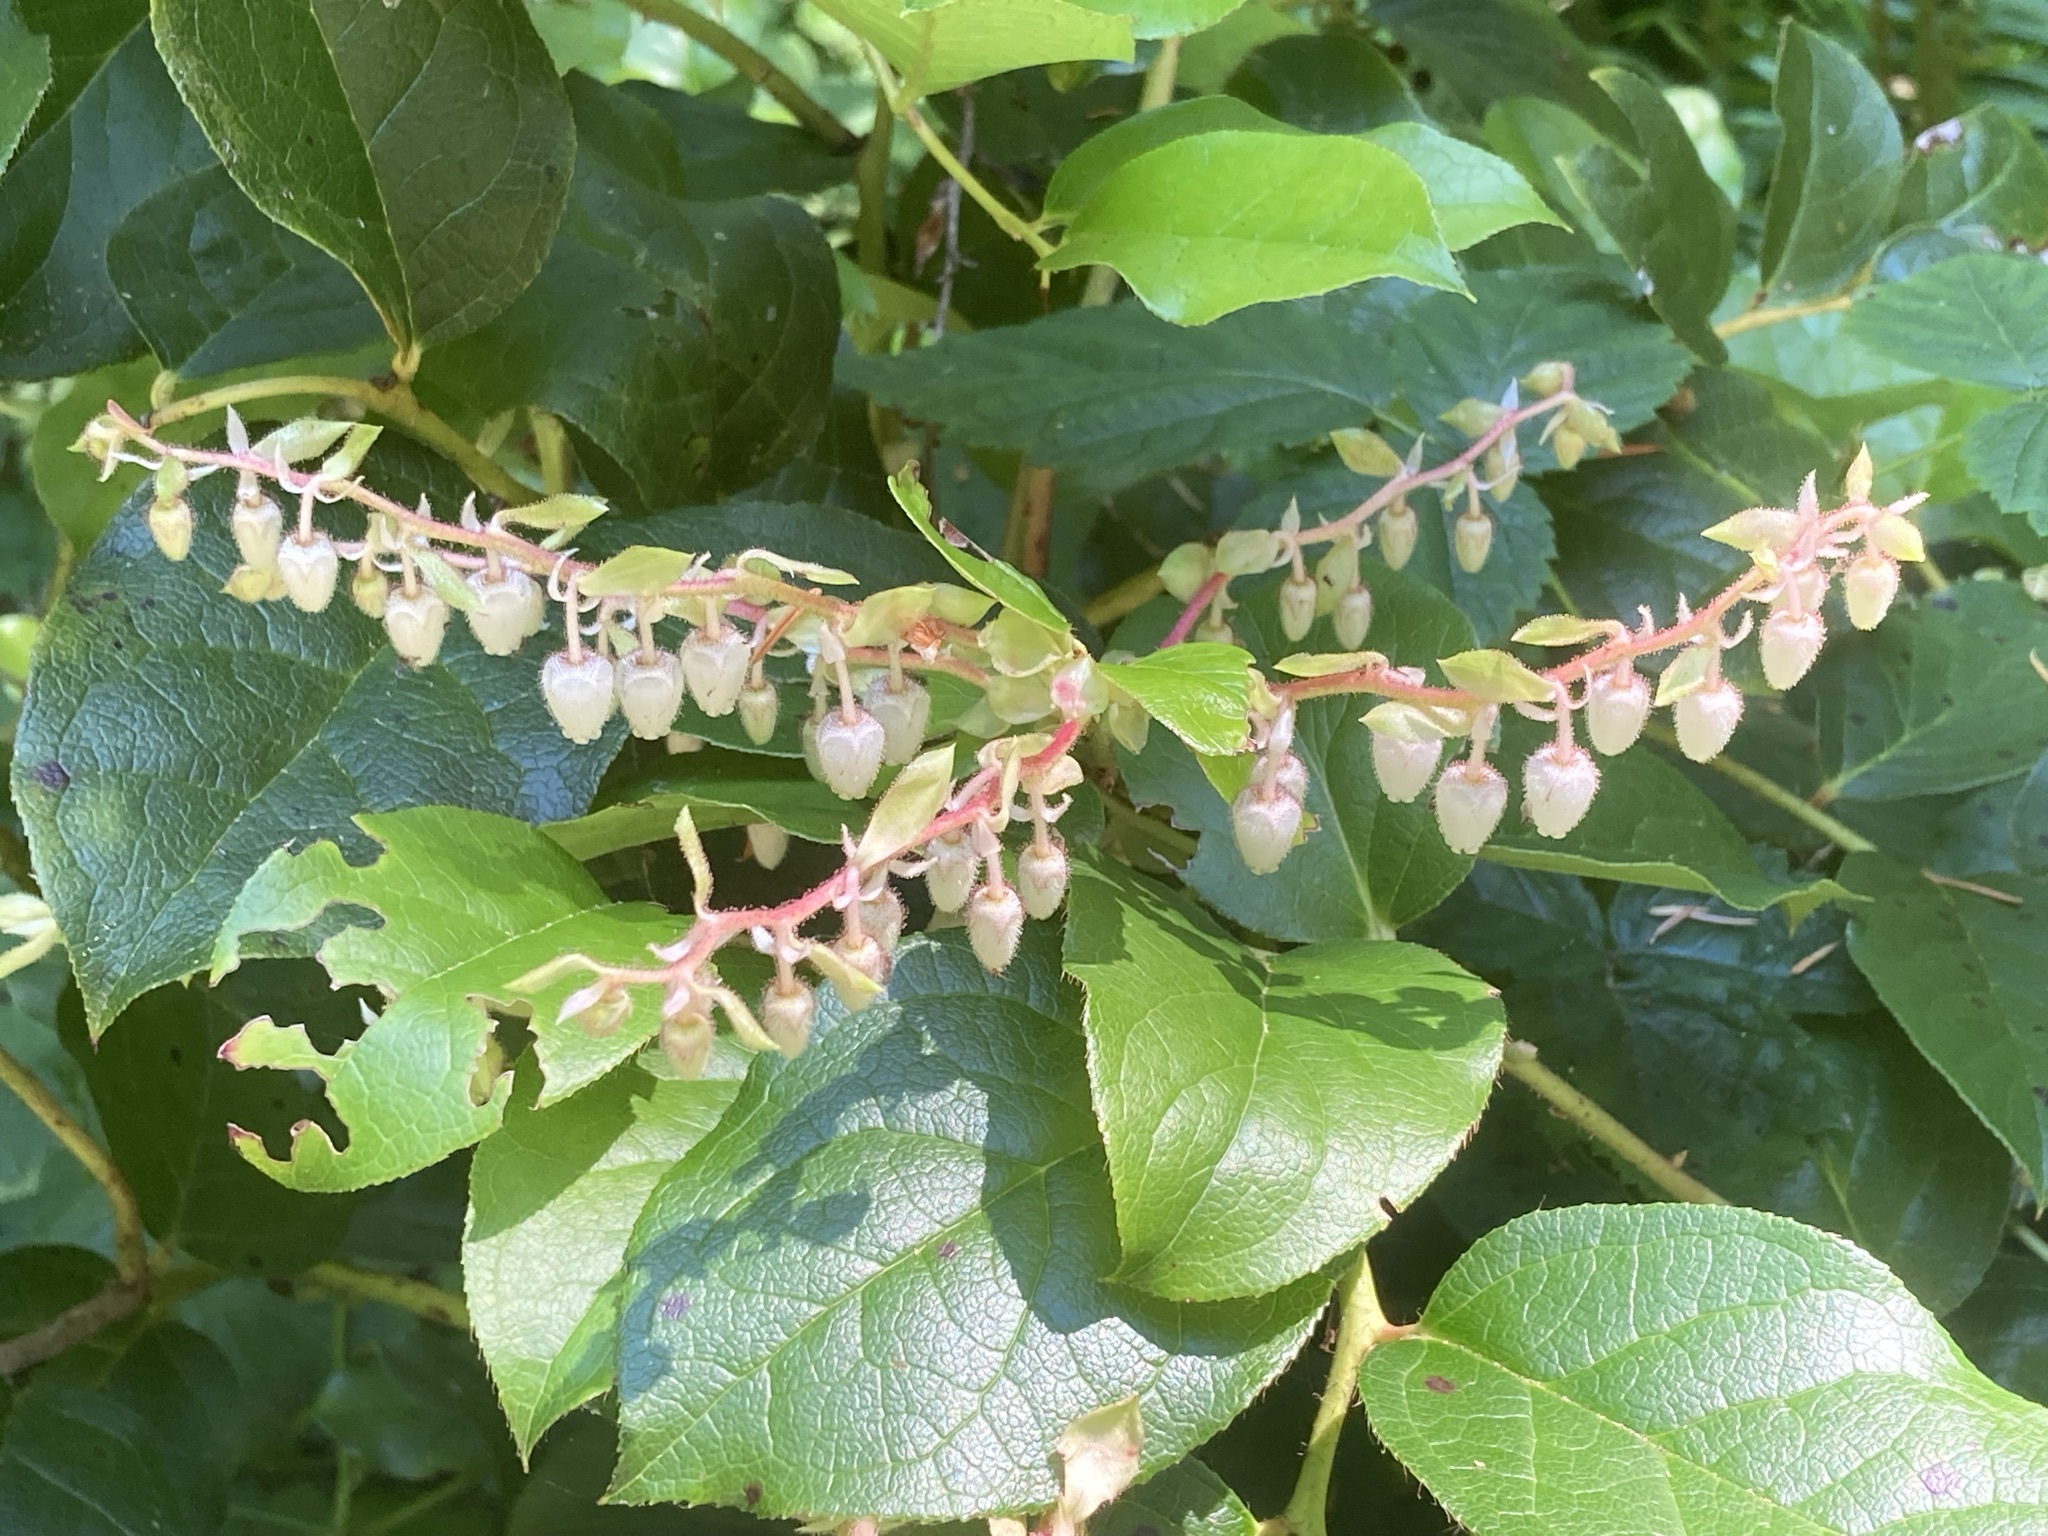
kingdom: Plantae
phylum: Tracheophyta
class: Magnoliopsida
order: Ericales
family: Ericaceae
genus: Gaultheria
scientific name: Gaultheria shallon
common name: Shallon
